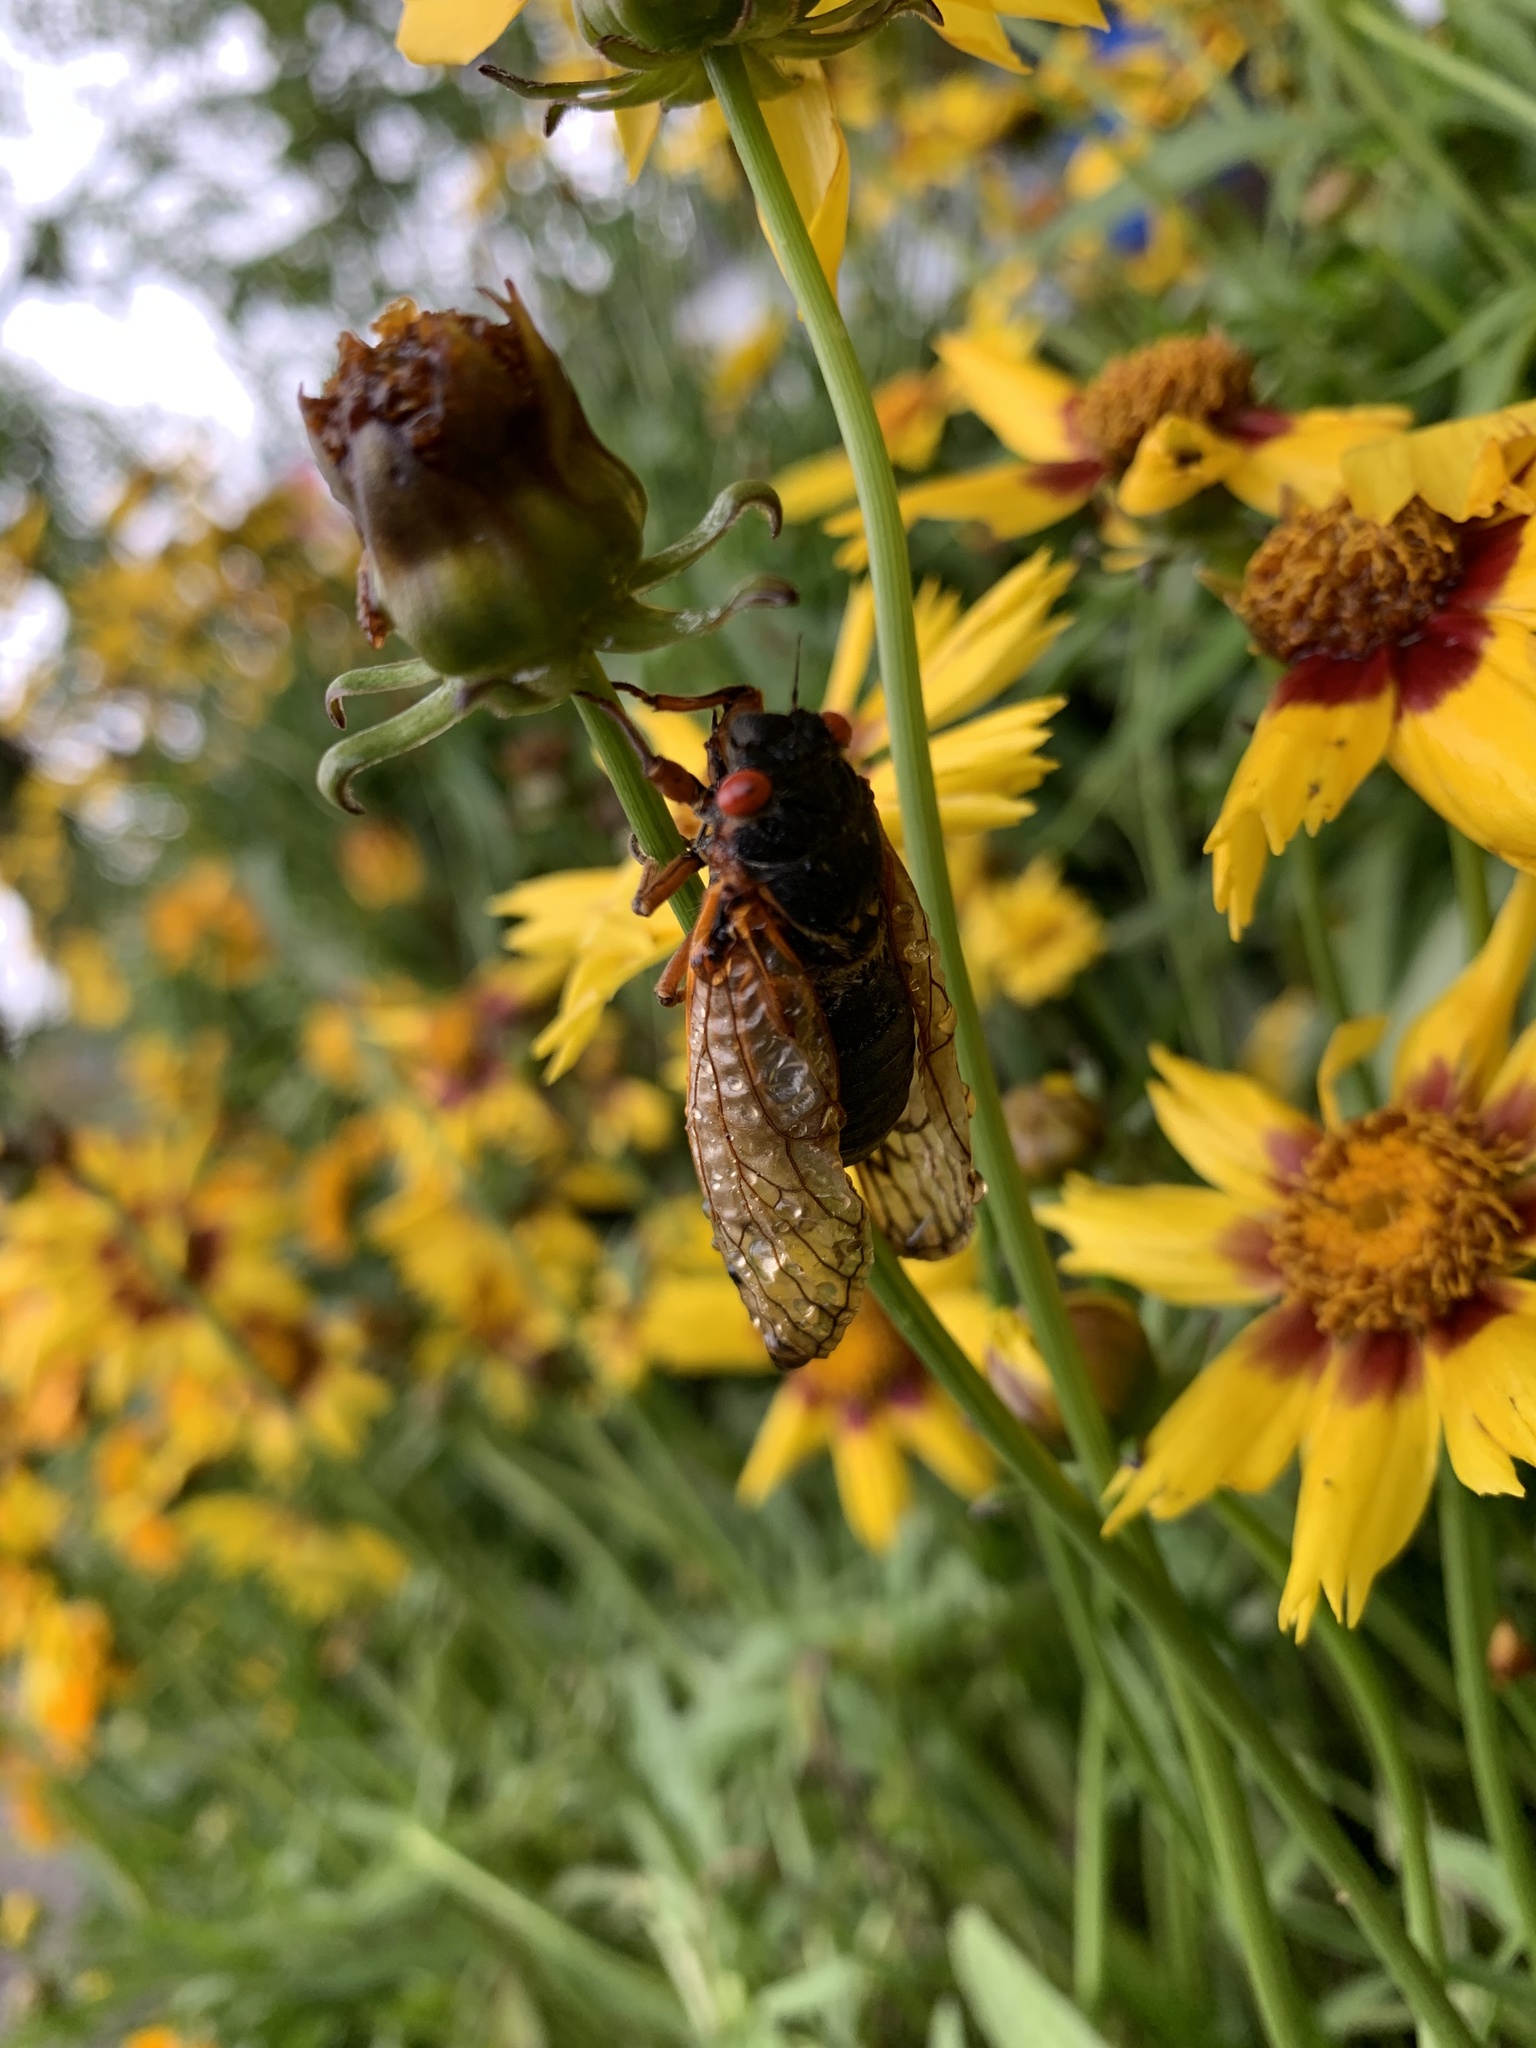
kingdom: Animalia
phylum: Arthropoda
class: Insecta
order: Hemiptera
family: Cicadidae
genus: Magicicada
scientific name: Magicicada septendecim
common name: Periodical cicada
